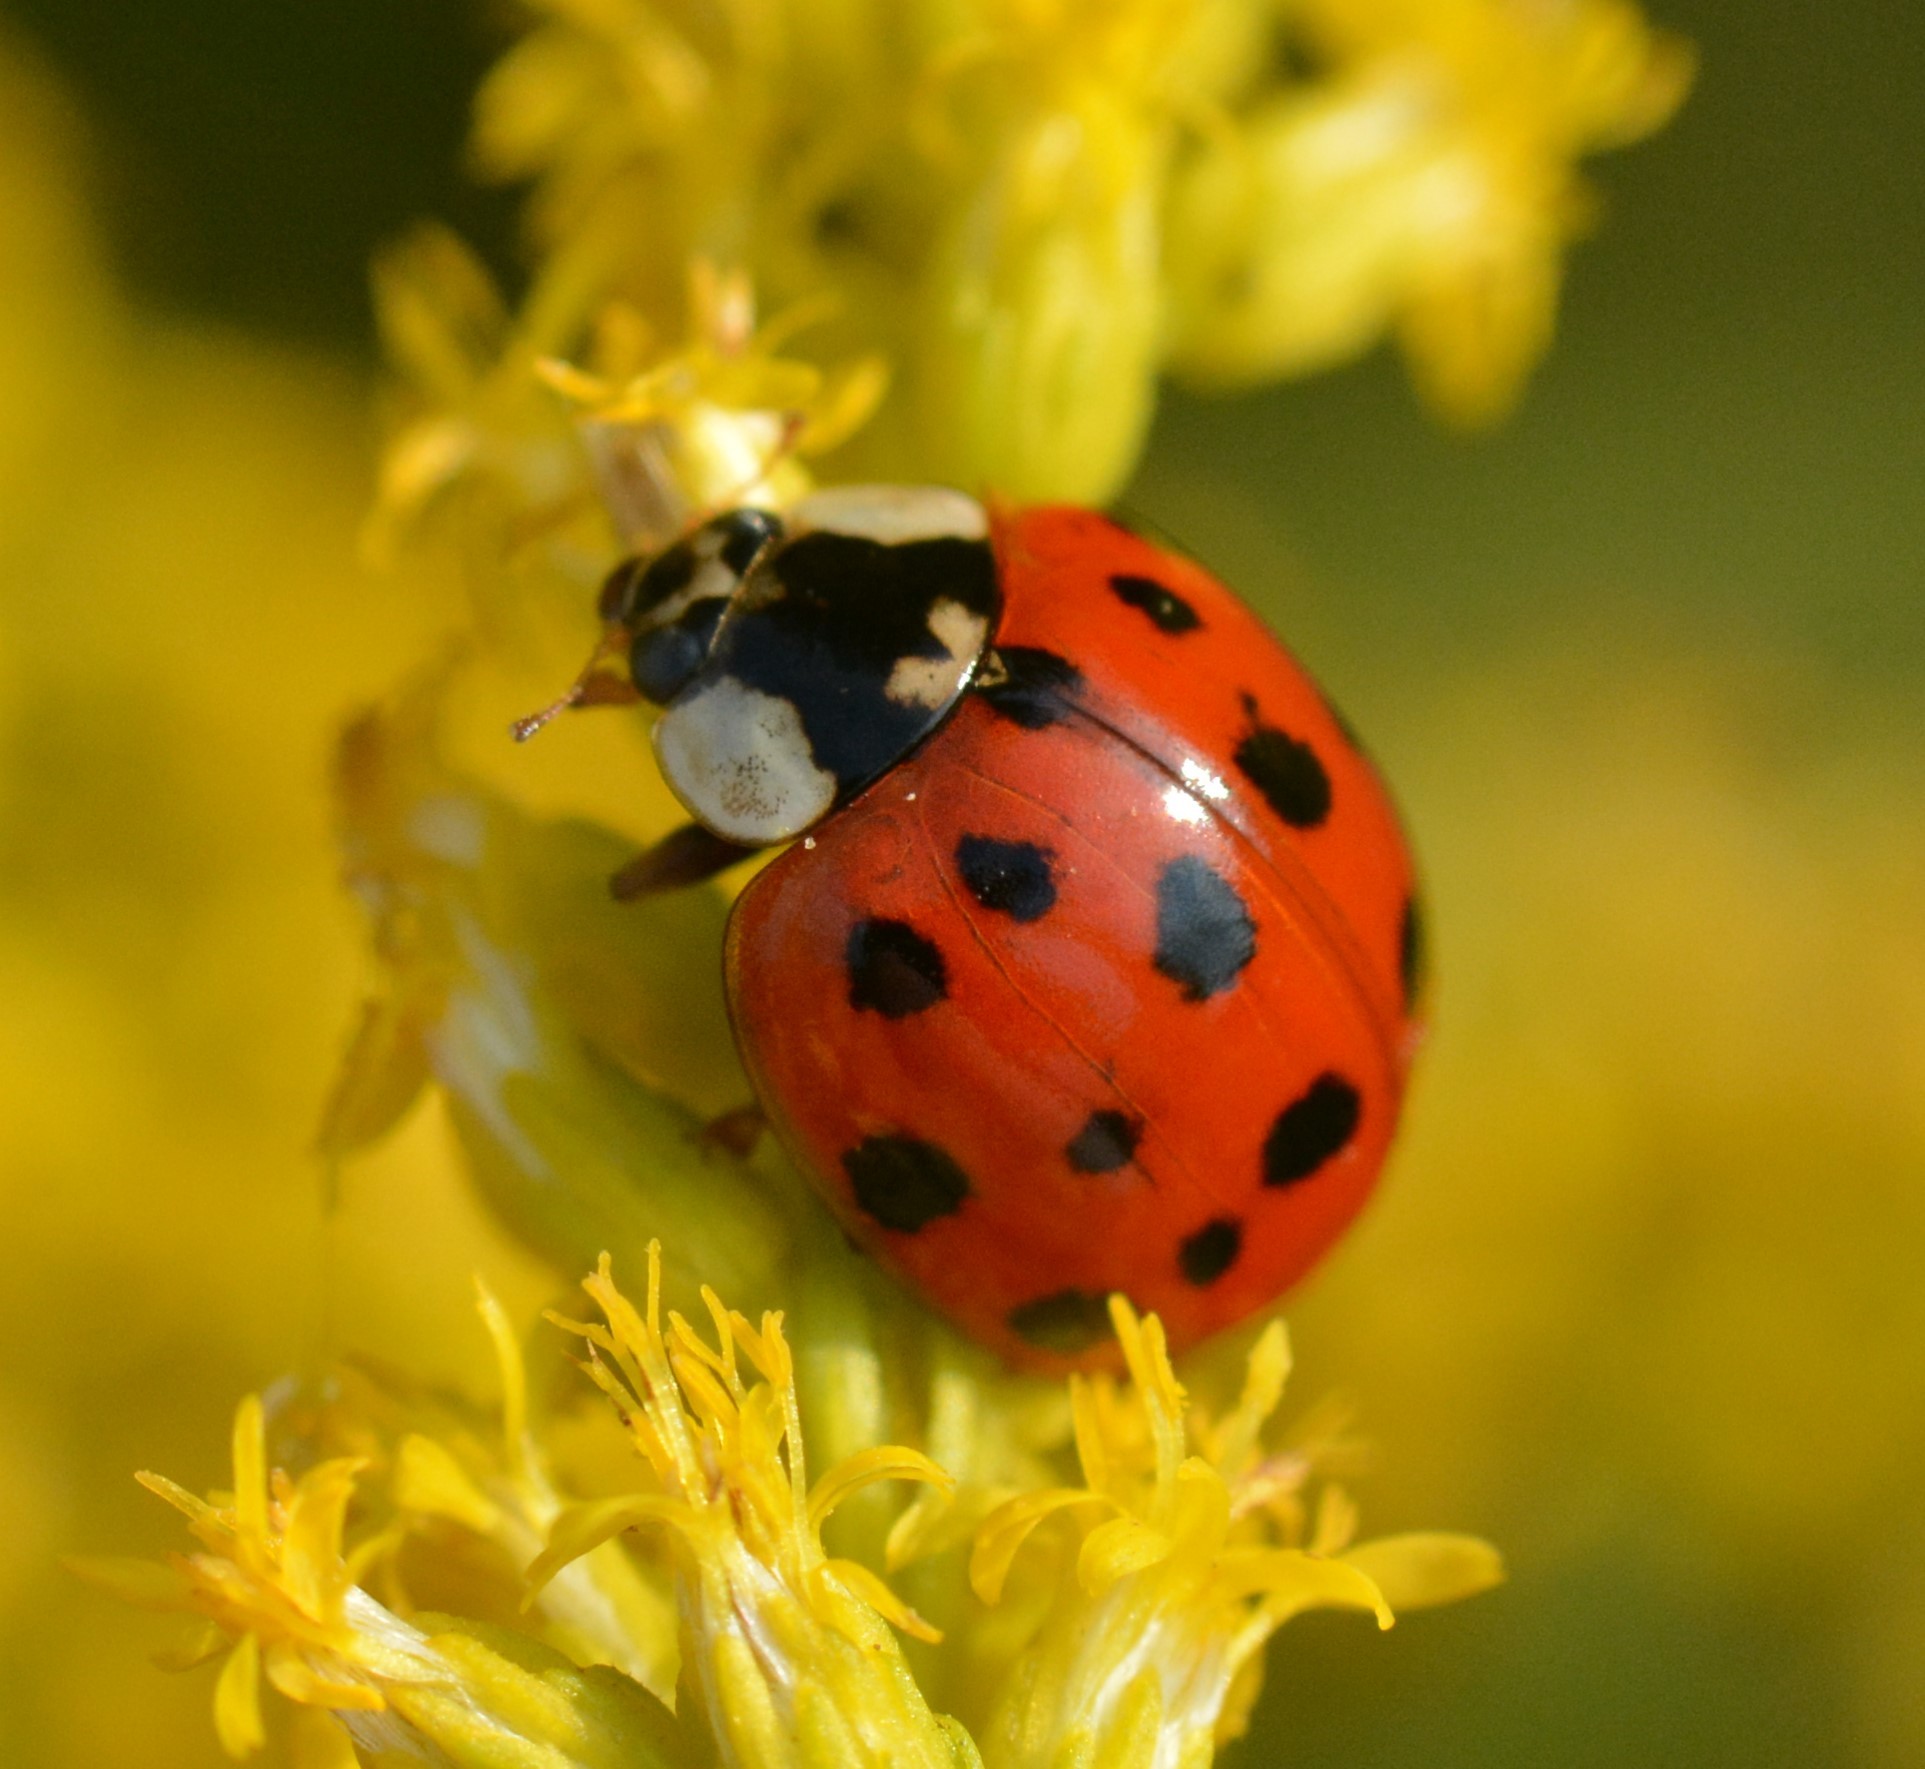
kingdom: Animalia
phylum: Arthropoda
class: Insecta
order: Coleoptera
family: Coccinellidae
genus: Harmonia
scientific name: Harmonia axyridis
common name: Harlequin ladybird
